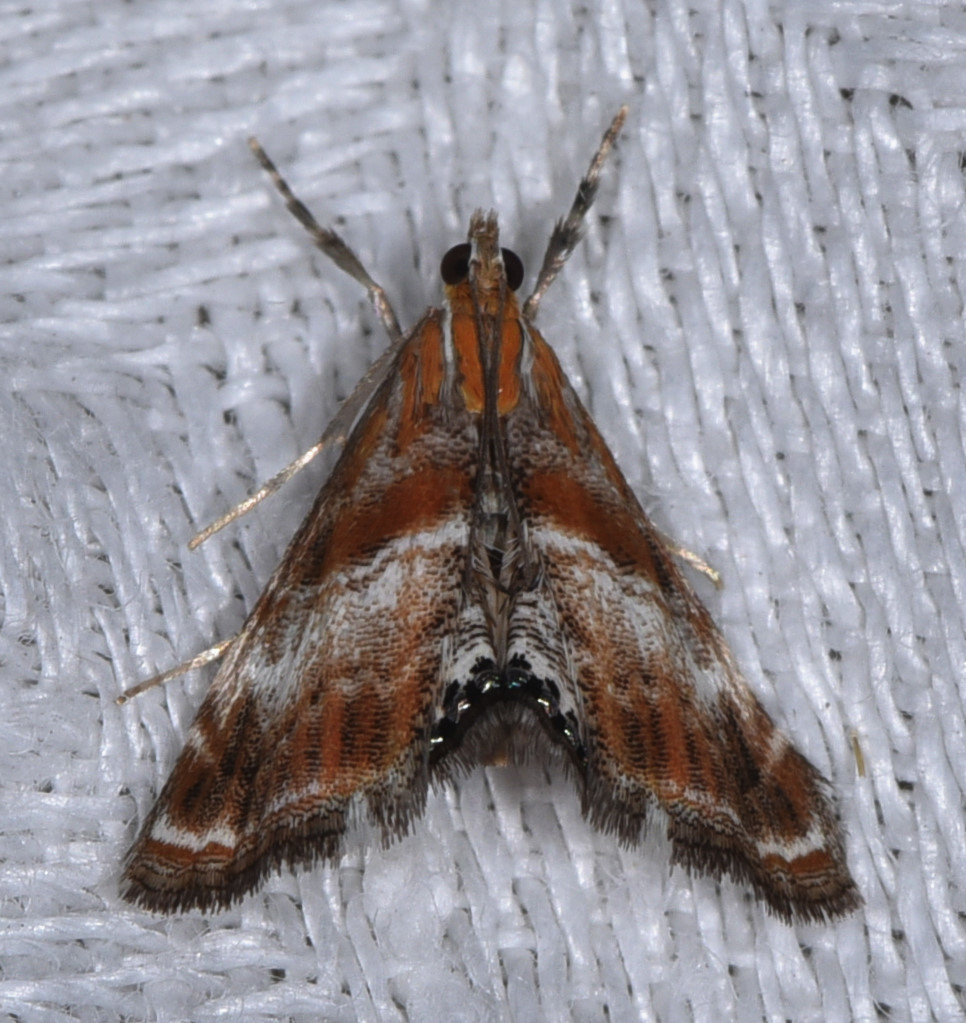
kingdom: Animalia
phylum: Arthropoda
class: Insecta
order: Lepidoptera
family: Crambidae
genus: Dicymolomia
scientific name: Dicymolomia metalliferalis
